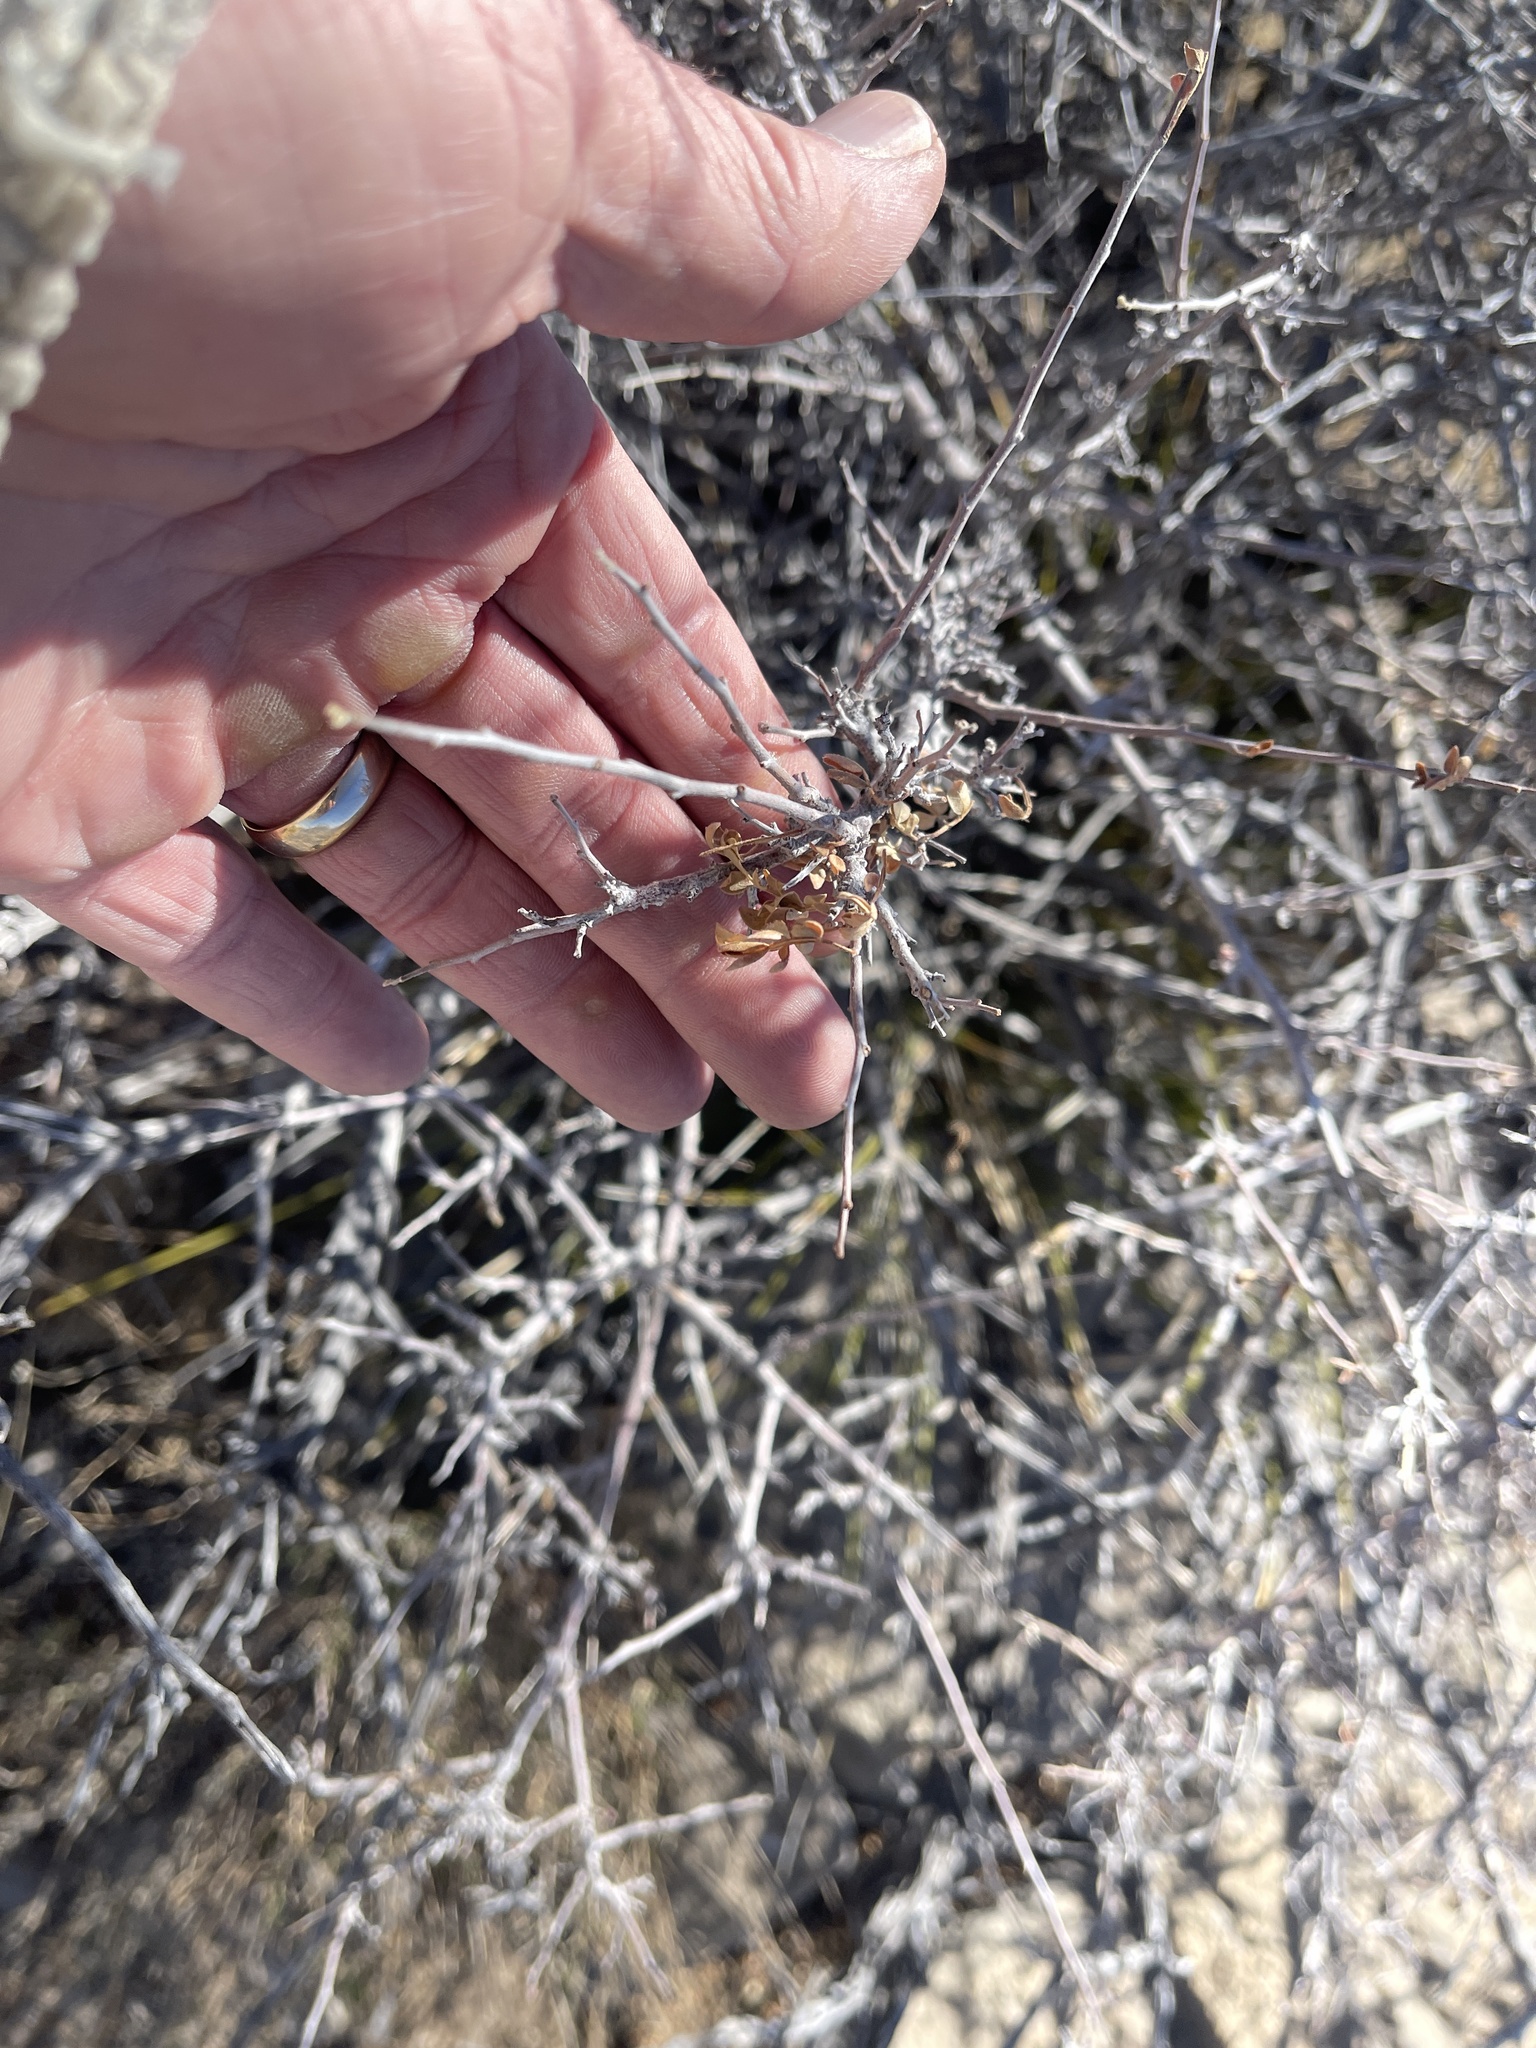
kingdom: Plantae
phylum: Tracheophyta
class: Magnoliopsida
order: Sapindales
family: Anacardiaceae
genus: Rhus
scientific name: Rhus microphylla
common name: Desert sumac
